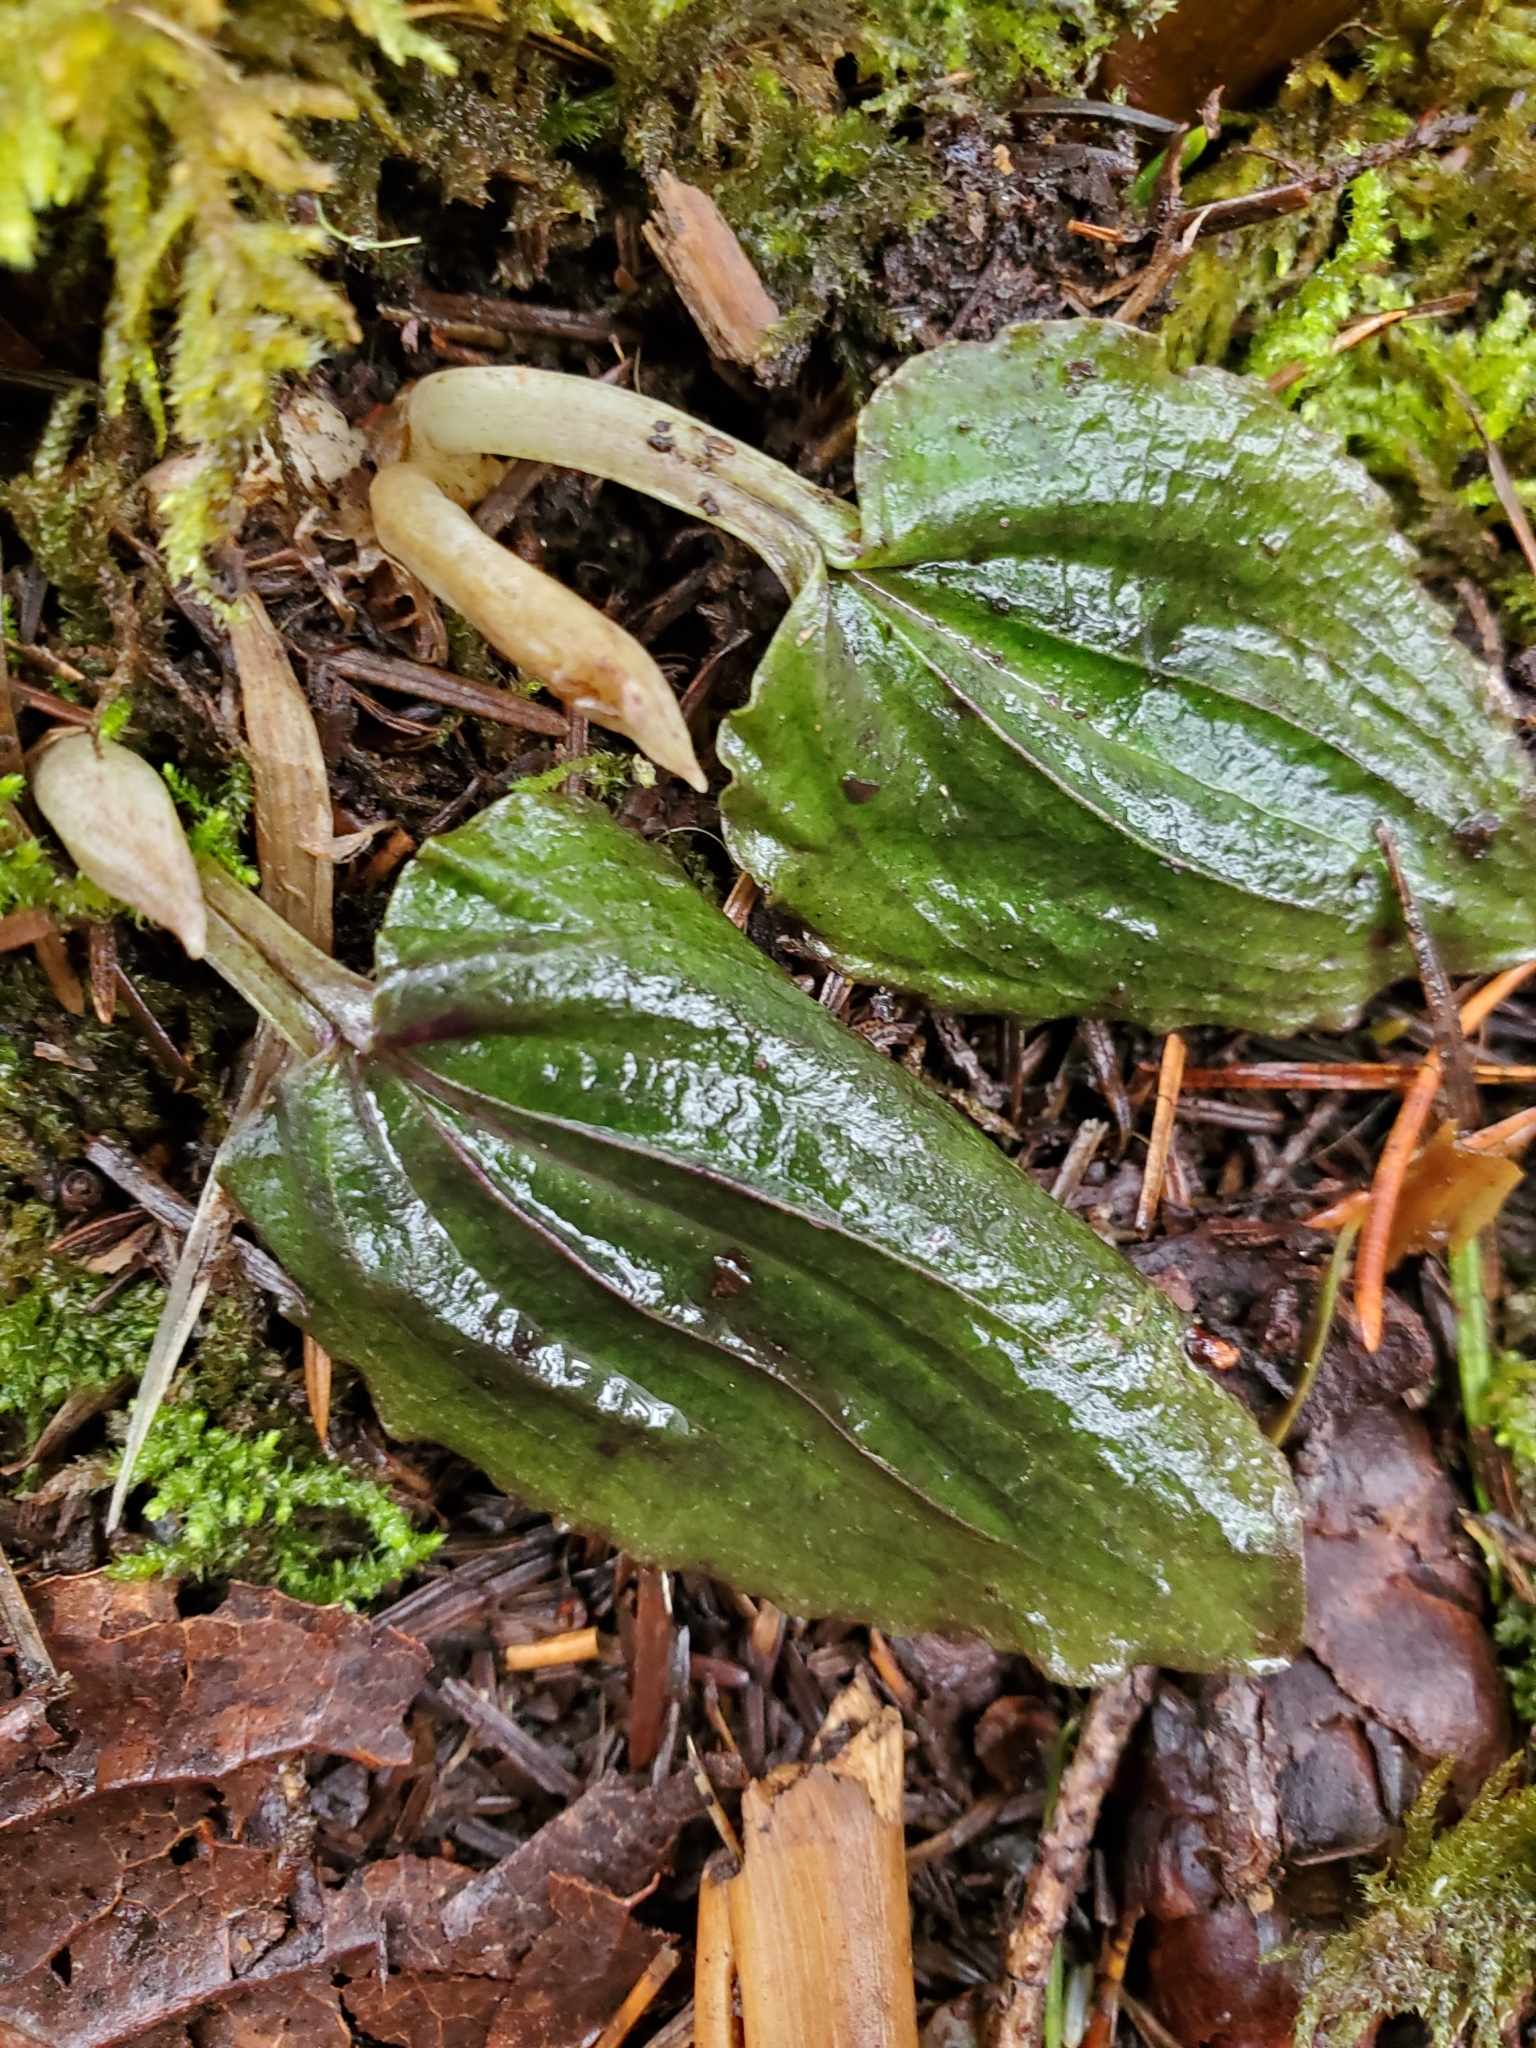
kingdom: Plantae
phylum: Tracheophyta
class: Liliopsida
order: Asparagales
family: Orchidaceae
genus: Calypso
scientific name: Calypso bulbosa
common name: Calypso
